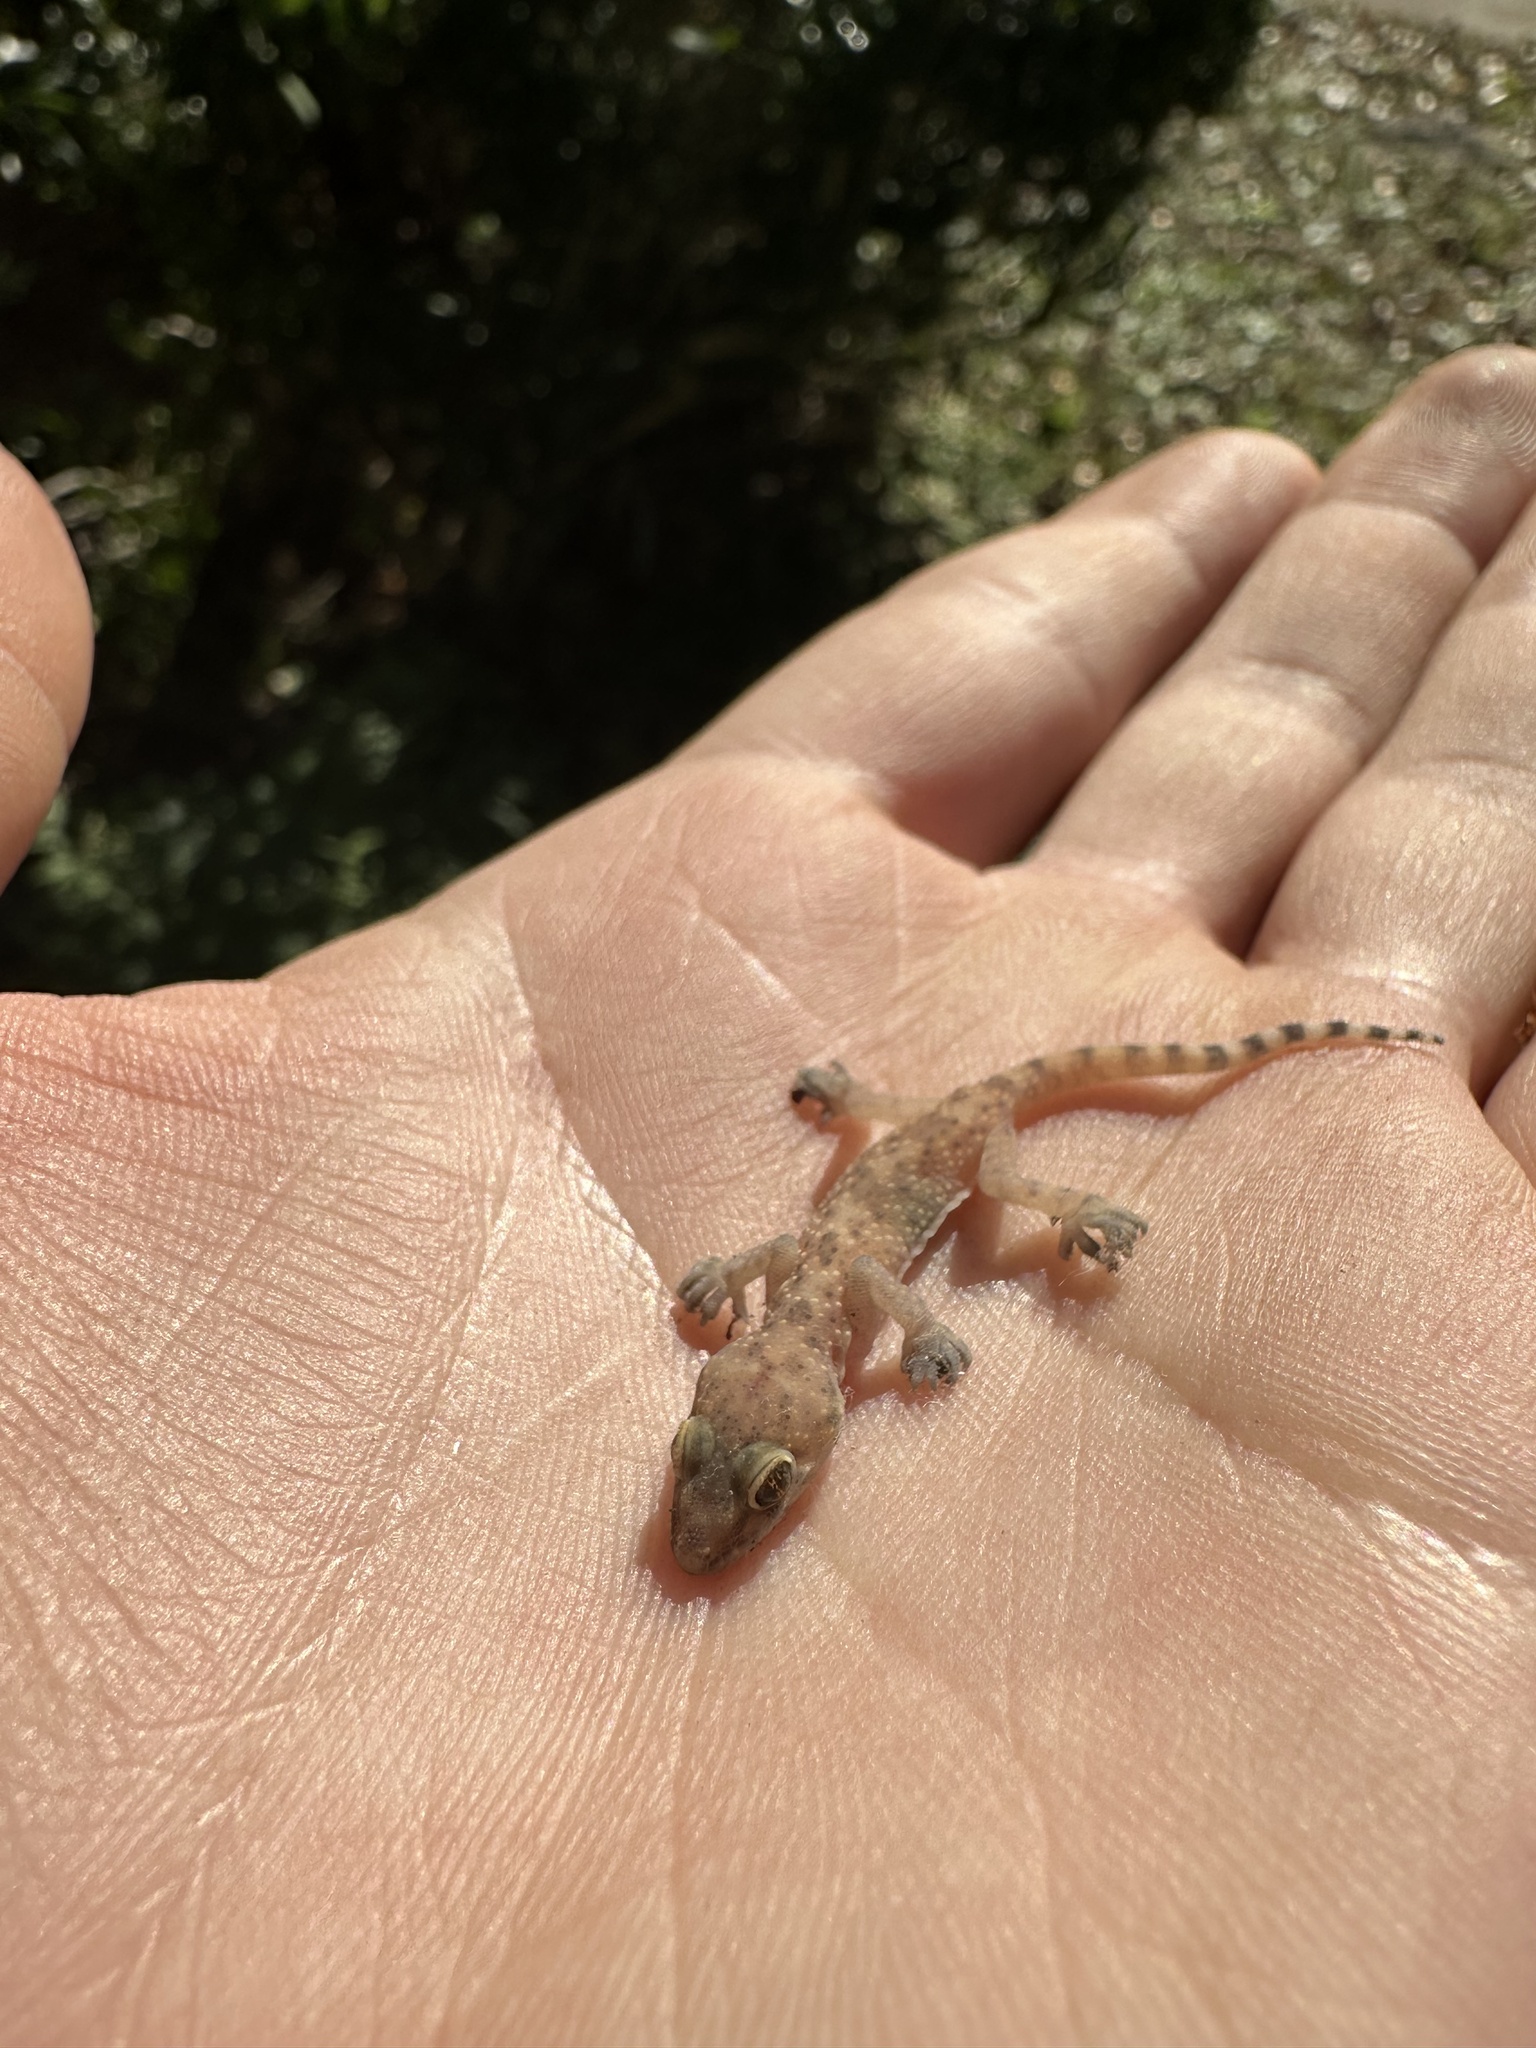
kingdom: Animalia
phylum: Chordata
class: Squamata
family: Gekkonidae
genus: Hemidactylus
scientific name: Hemidactylus turcicus
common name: Turkish gecko
